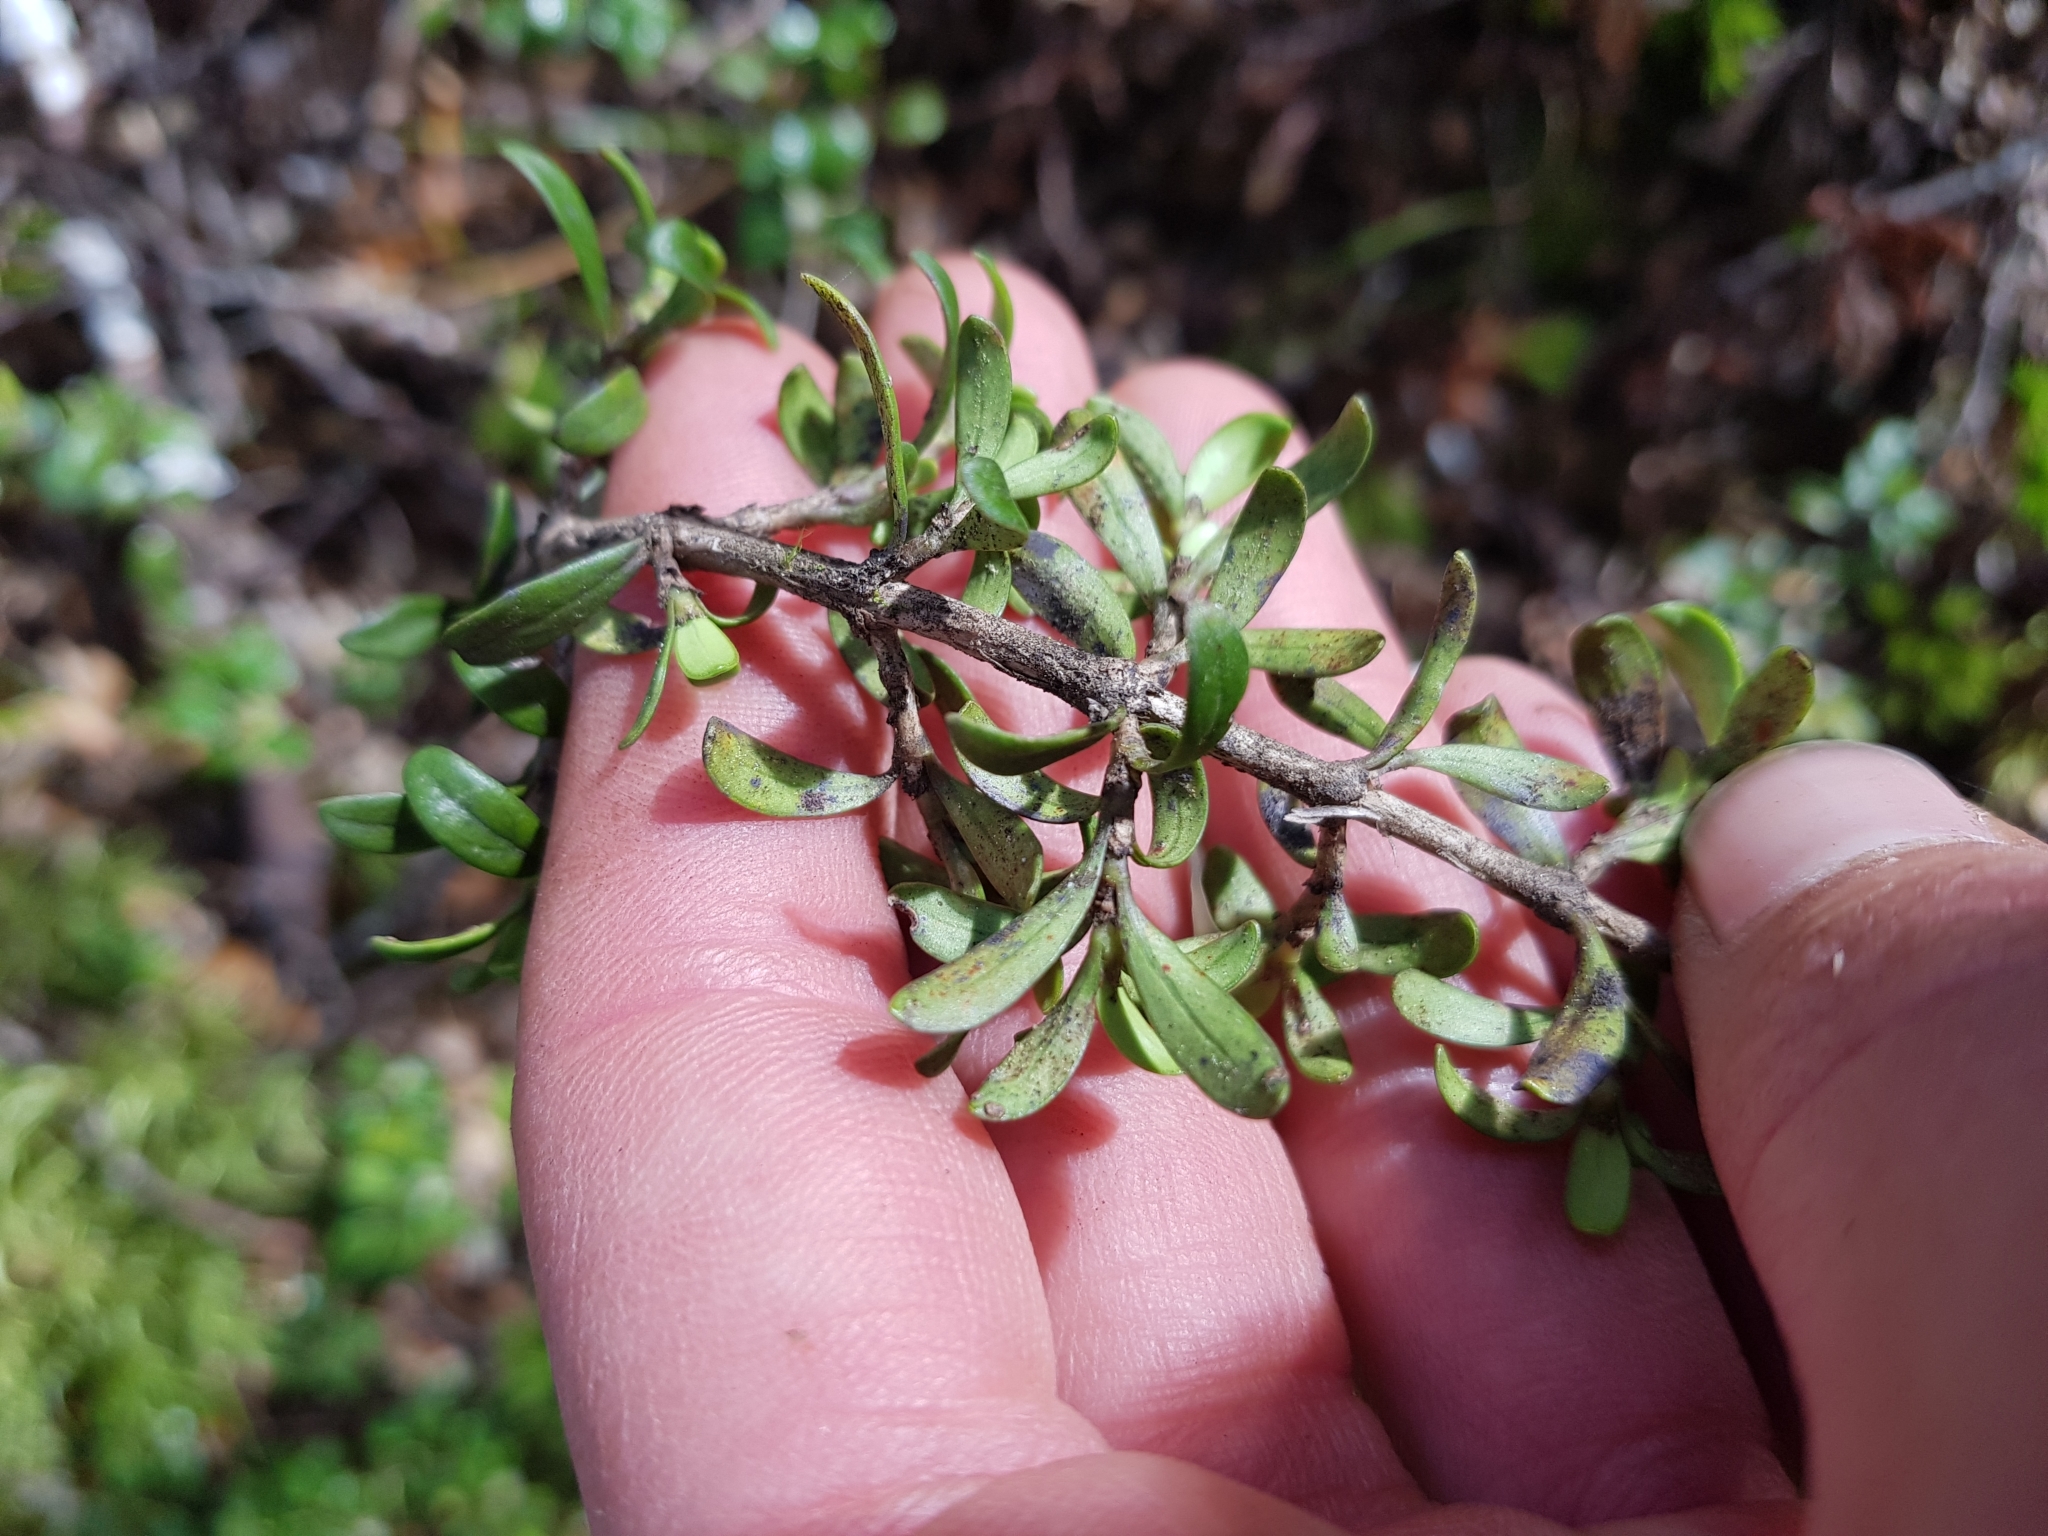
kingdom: Plantae
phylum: Tracheophyta
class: Magnoliopsida
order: Gentianales
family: Rubiaceae
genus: Coprosma
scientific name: Coprosma pseudocuneata
